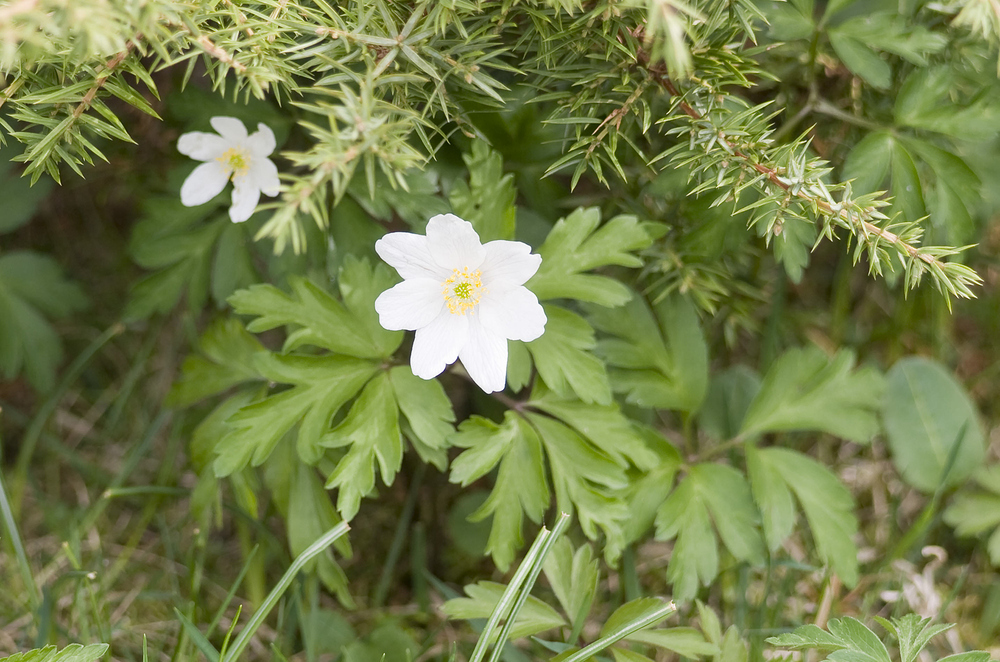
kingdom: Plantae
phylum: Tracheophyta
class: Magnoliopsida
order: Ranunculales
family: Ranunculaceae
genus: Anemone
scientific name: Anemone nemorosa
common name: Wood anemone
